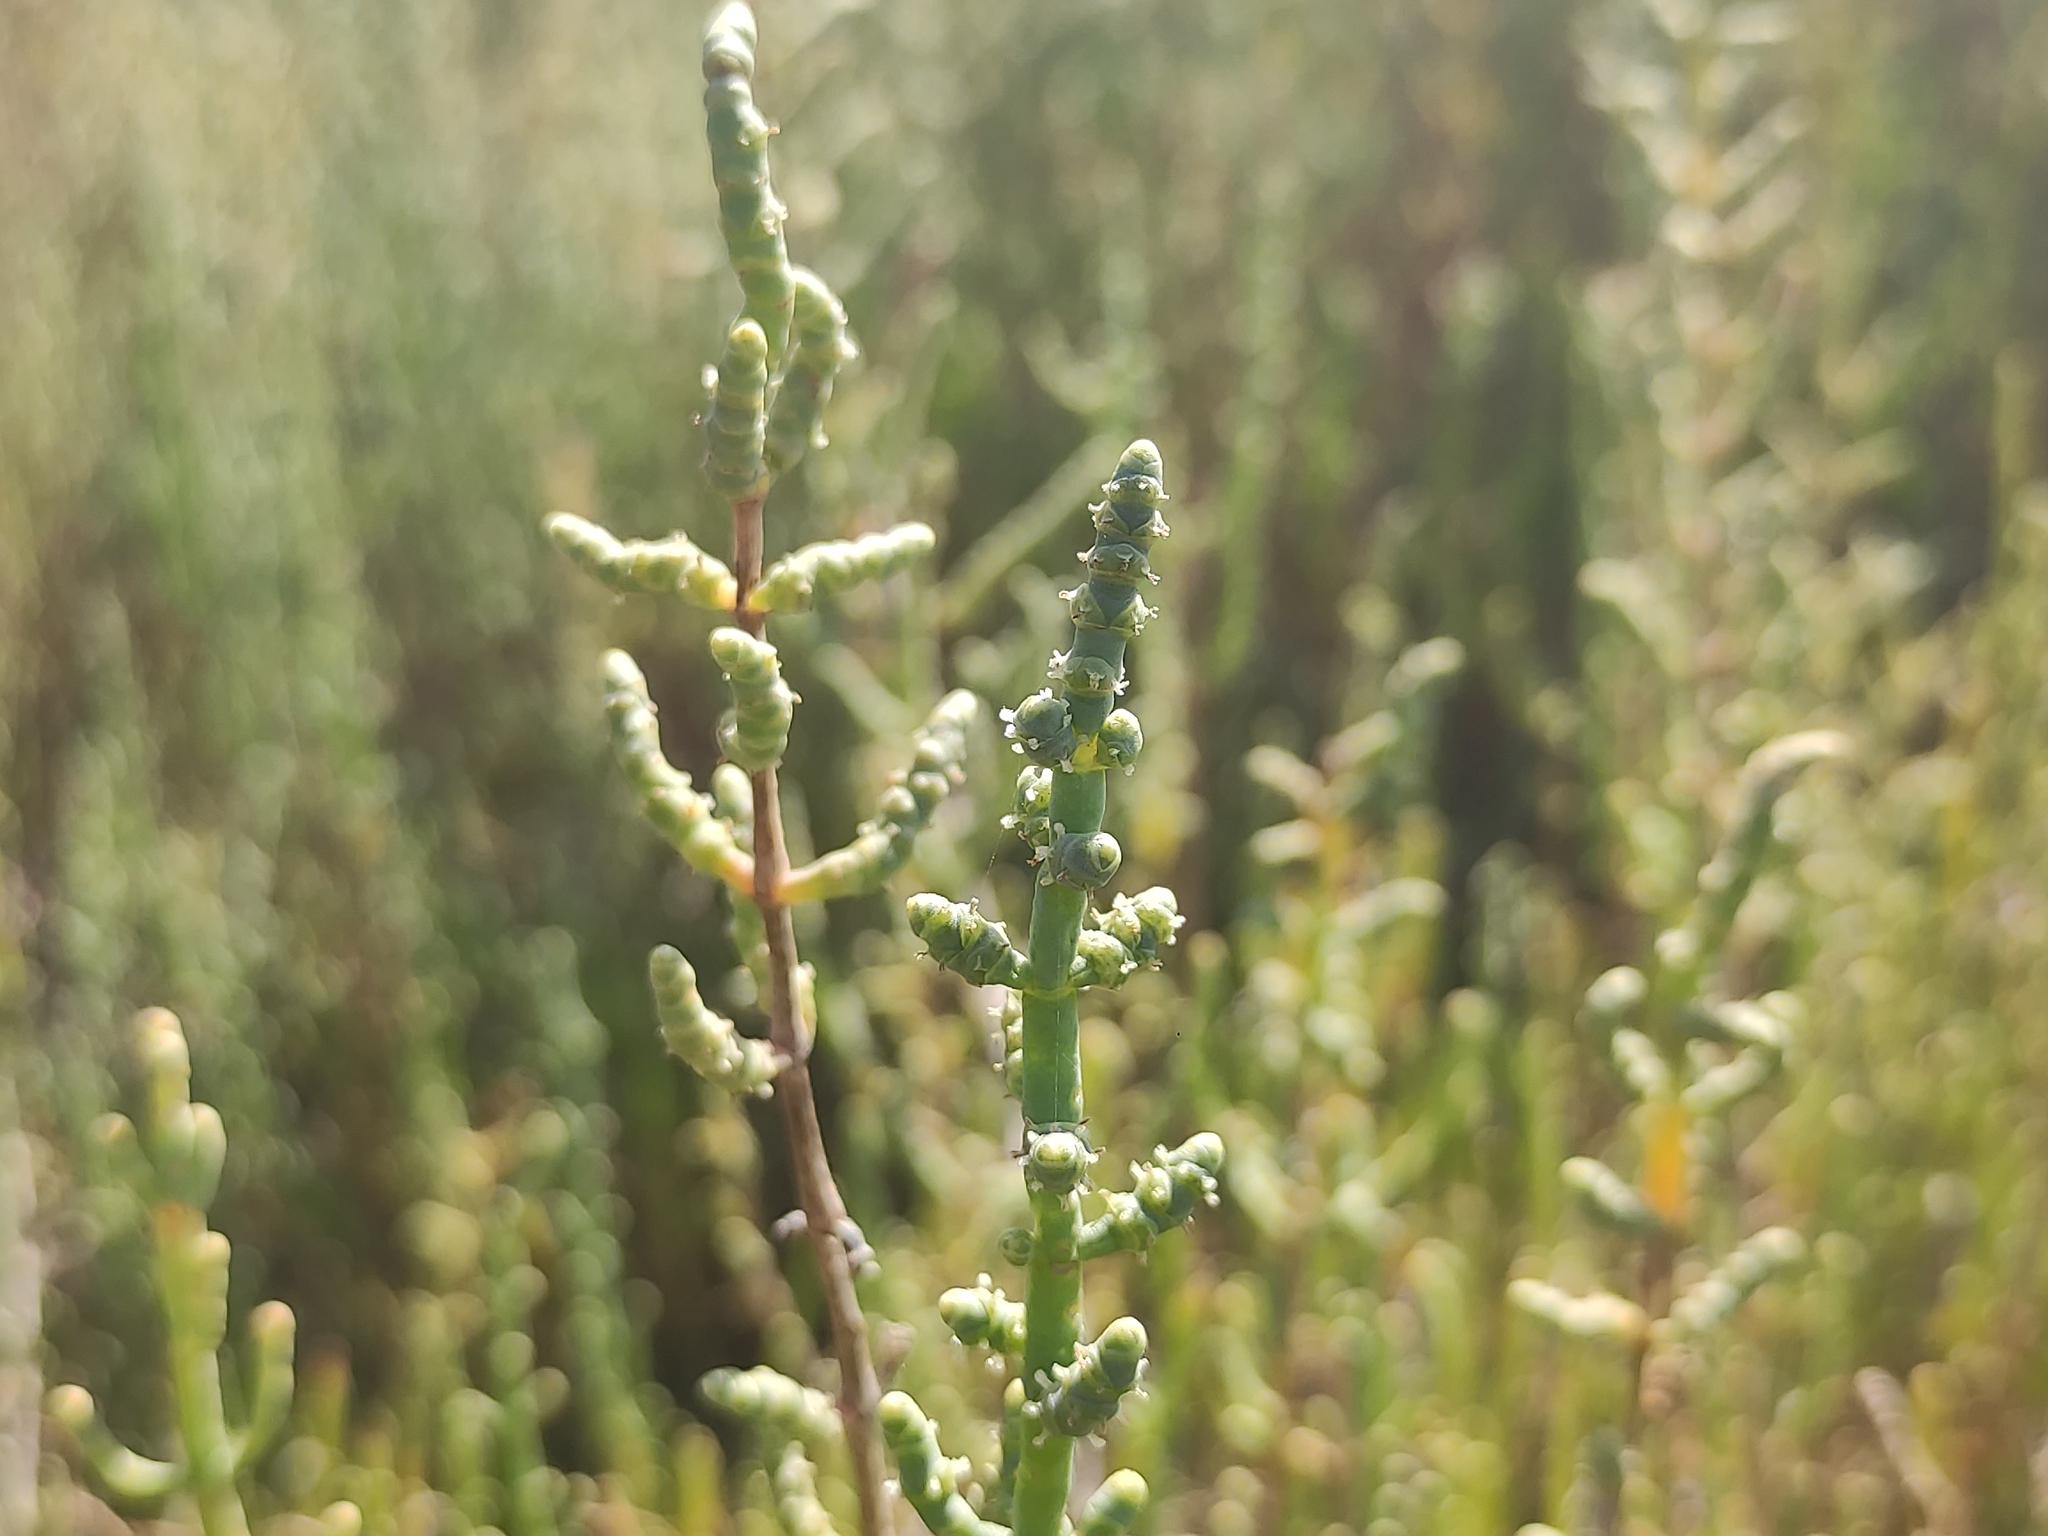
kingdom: Plantae
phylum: Tracheophyta
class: Magnoliopsida
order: Caryophyllales
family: Amaranthaceae
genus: Salicornia
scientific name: Salicornia fruticosa
